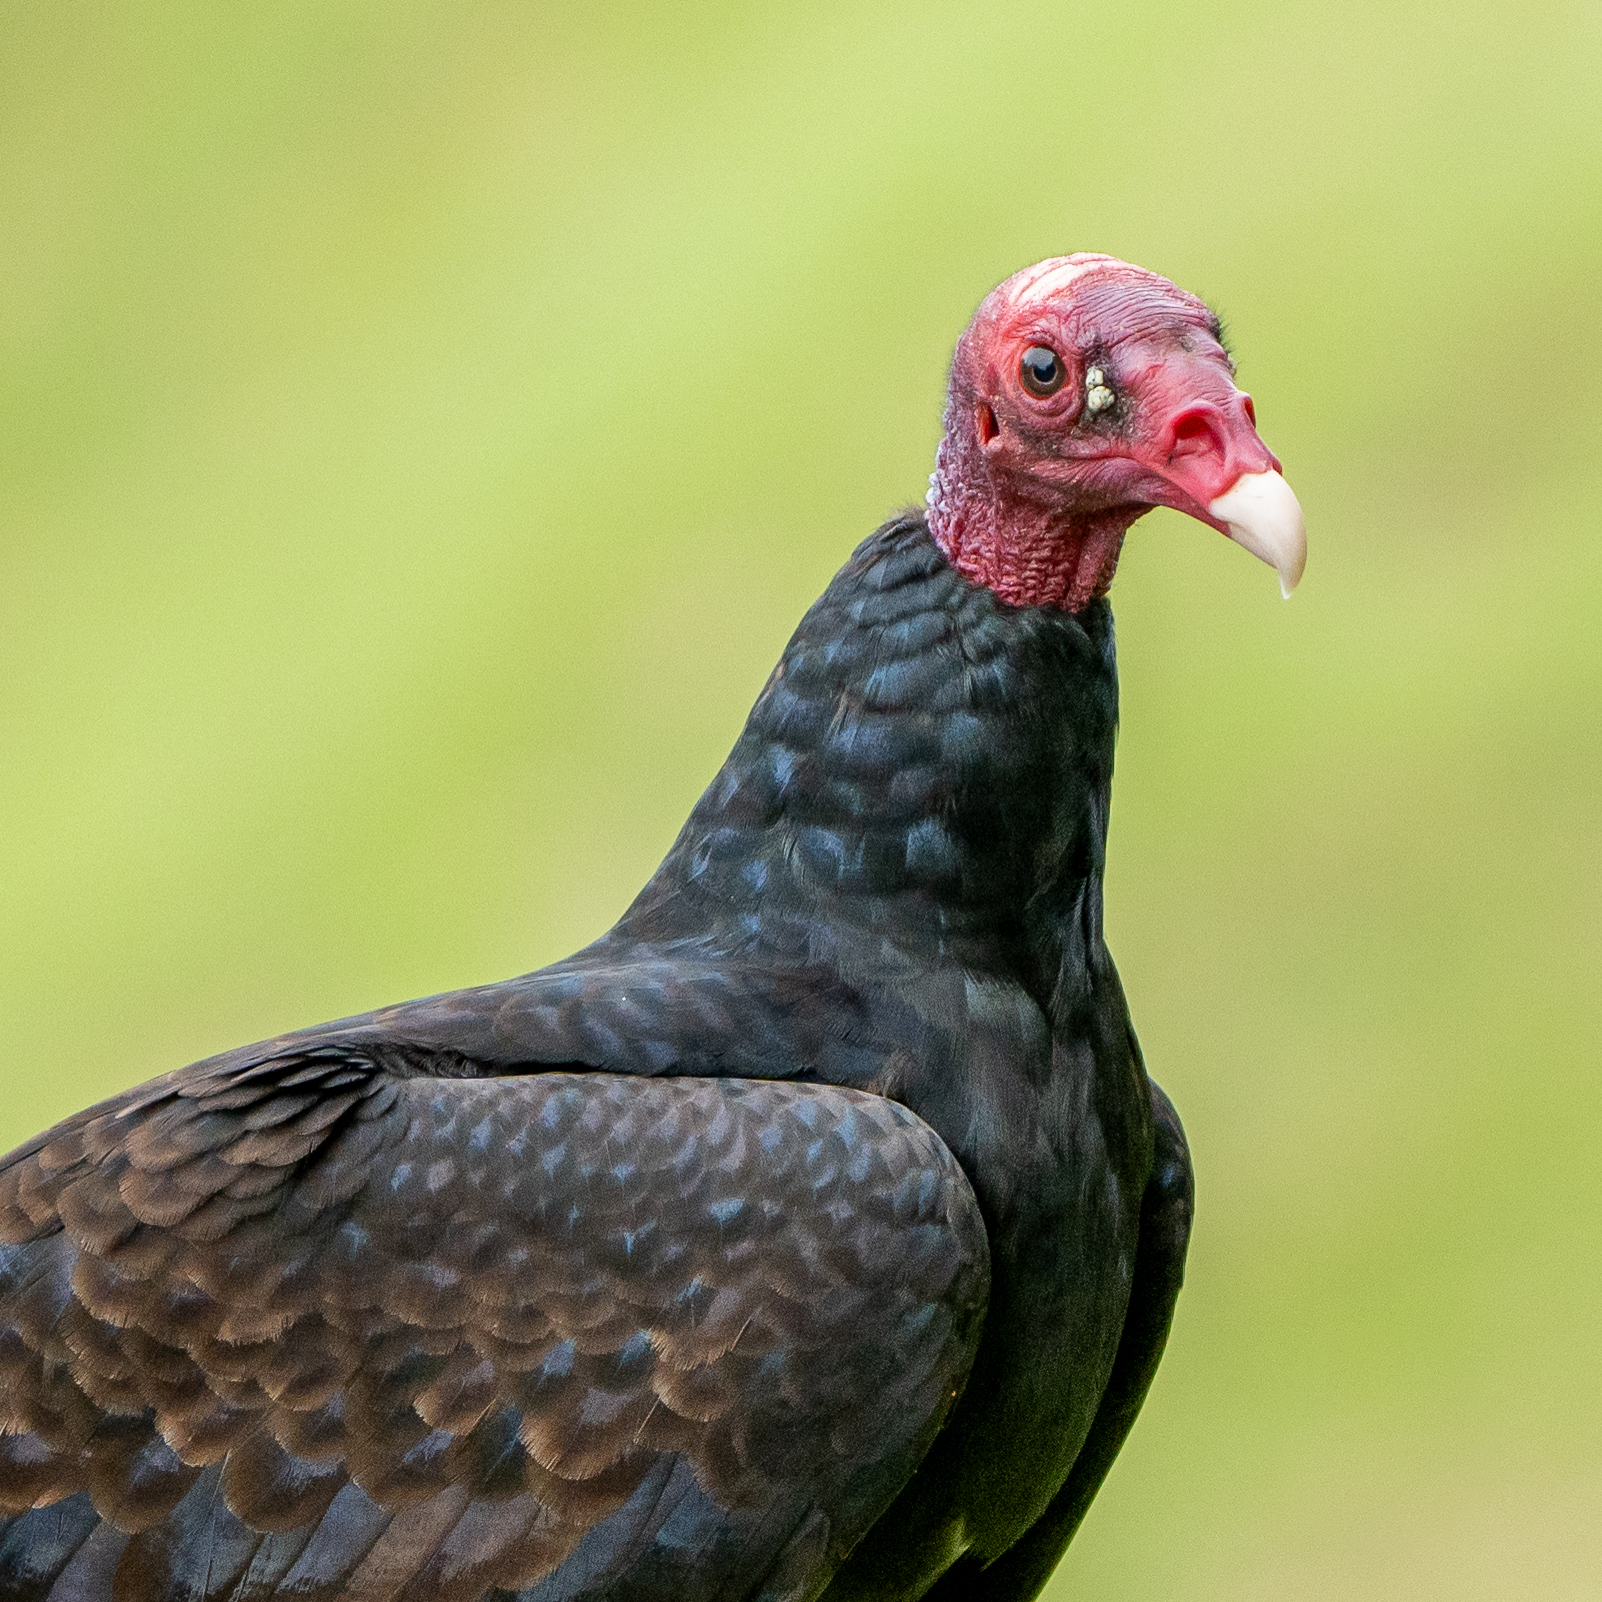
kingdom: Animalia
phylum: Chordata
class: Aves
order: Accipitriformes
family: Cathartidae
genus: Cathartes
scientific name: Cathartes aura
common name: Turkey vulture
